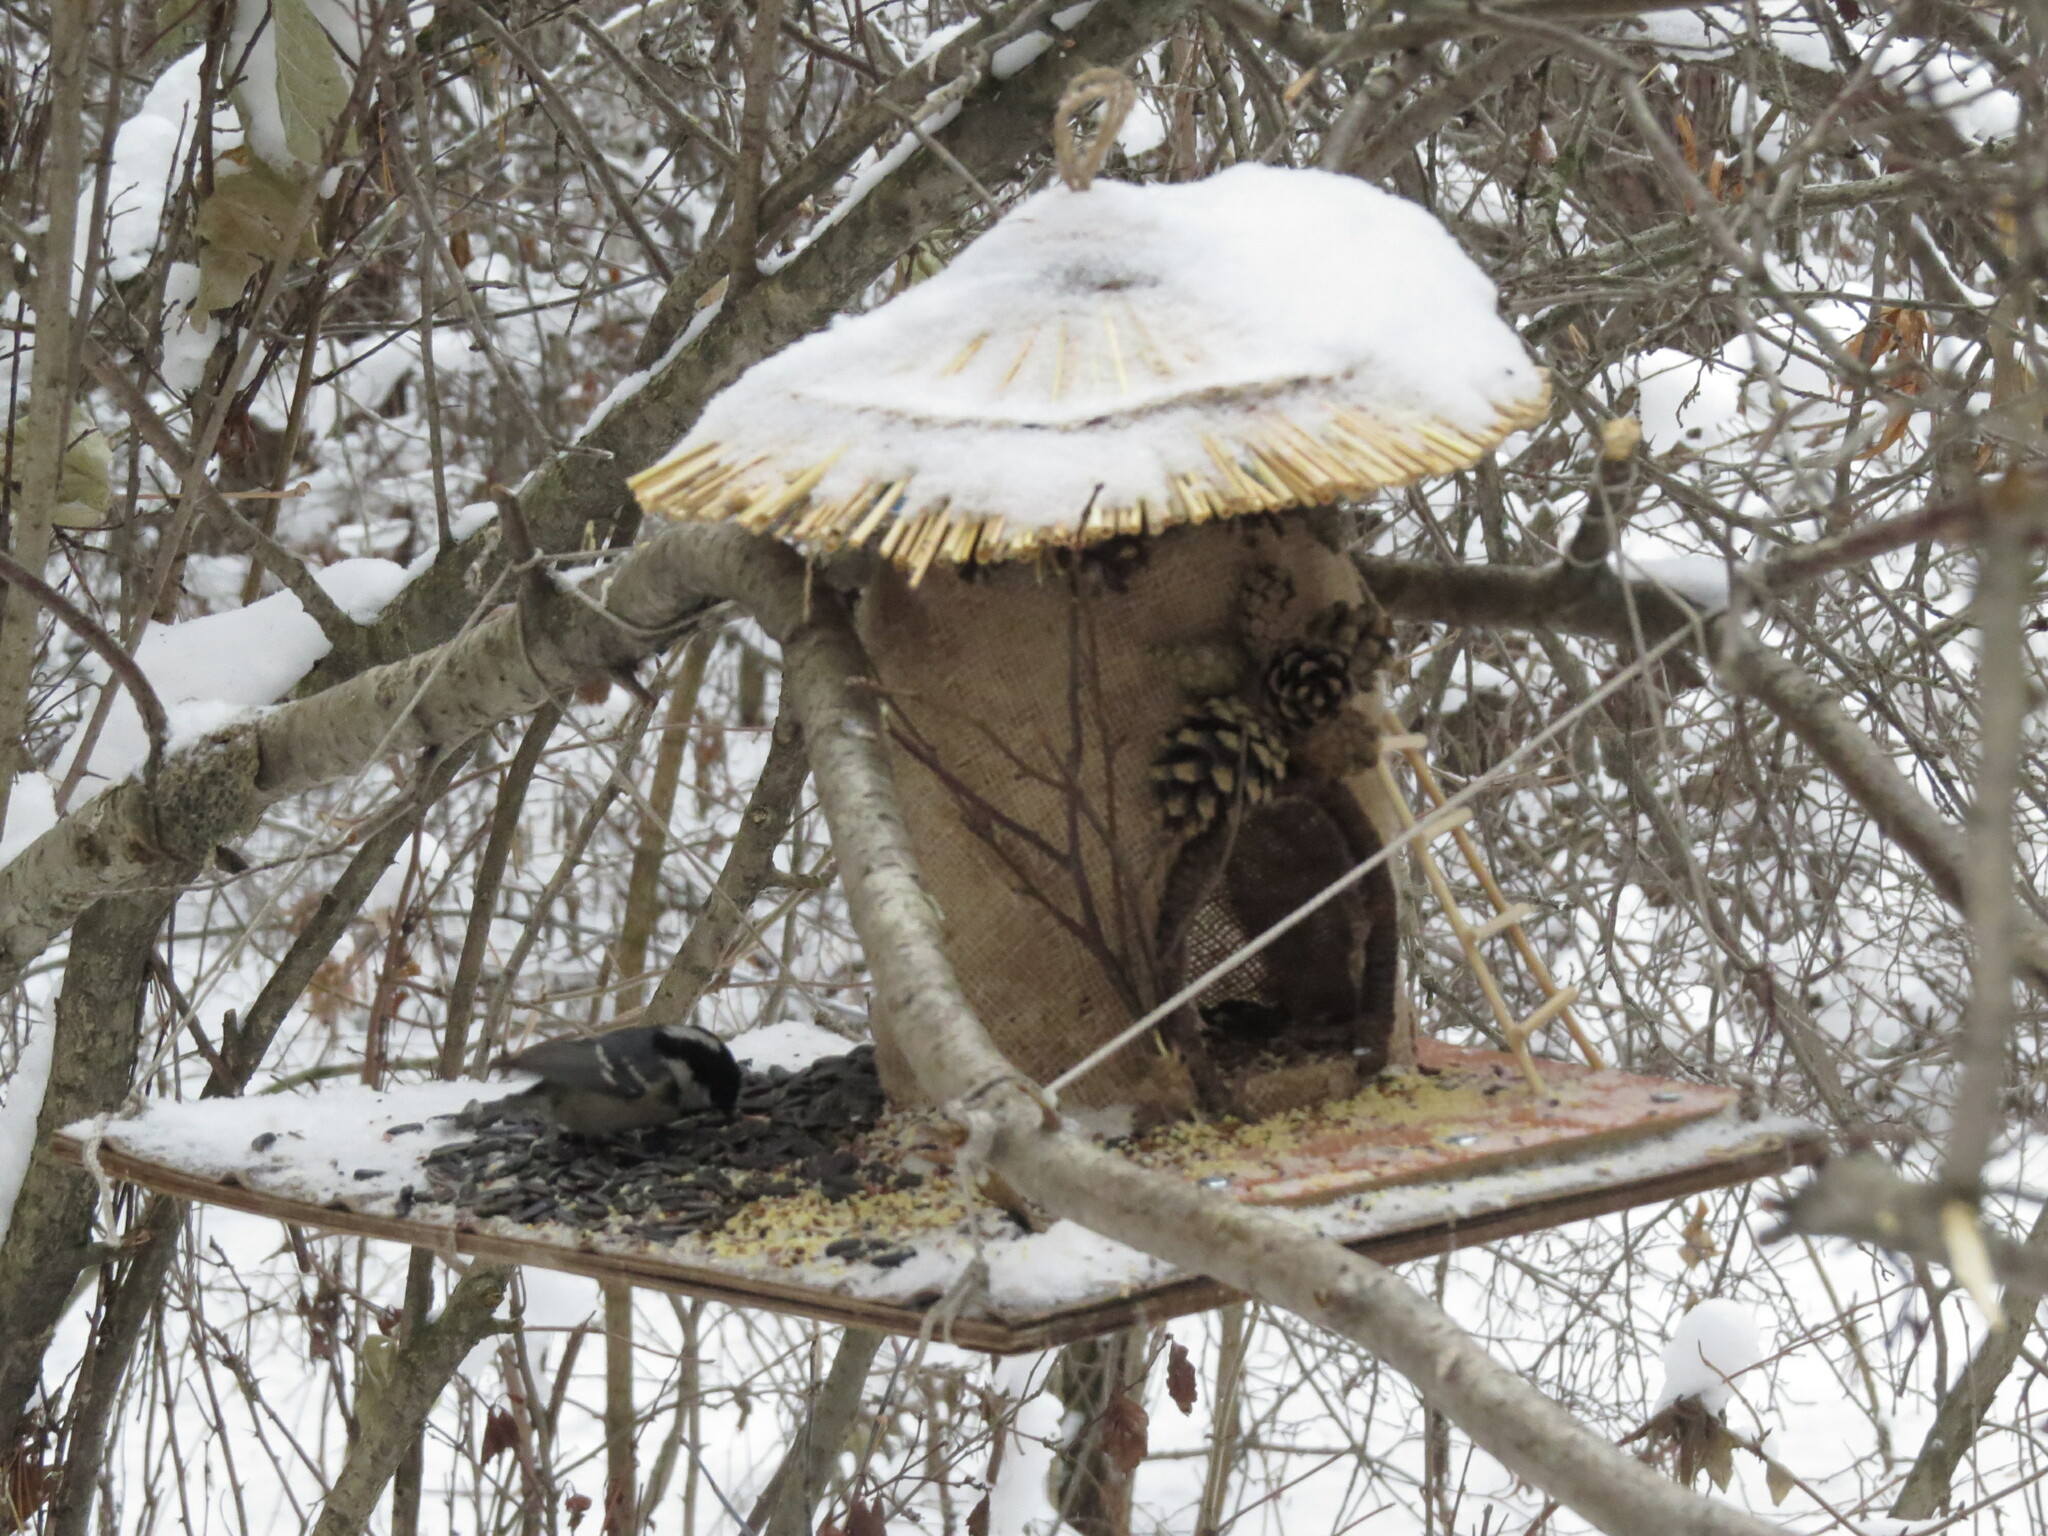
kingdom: Animalia
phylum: Chordata
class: Aves
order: Passeriformes
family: Paridae
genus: Periparus
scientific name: Periparus ater
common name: Coal tit
